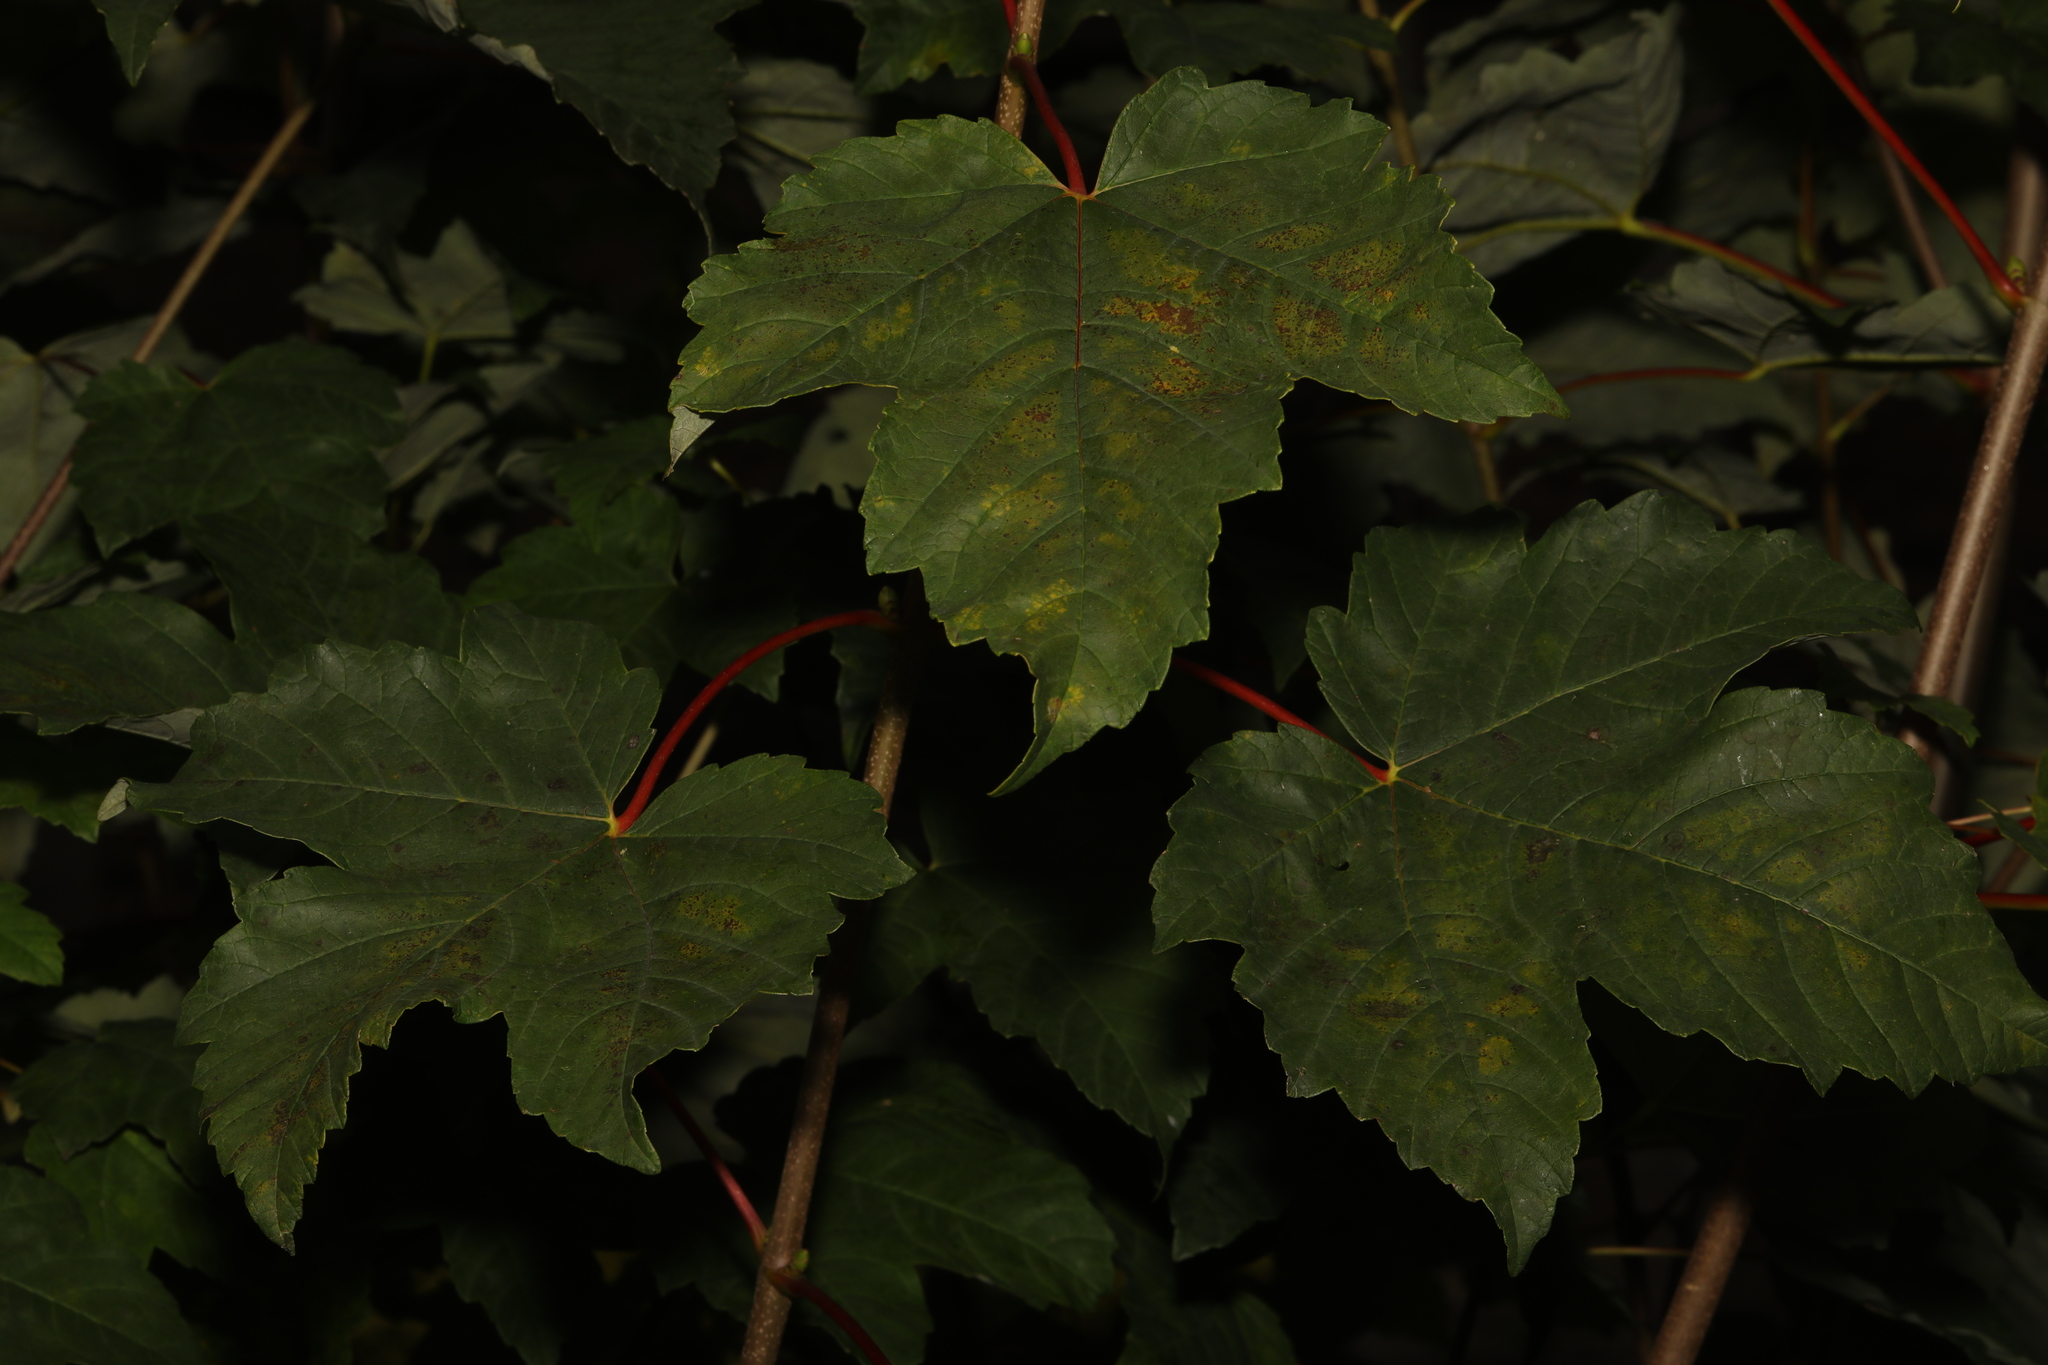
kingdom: Plantae
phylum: Tracheophyta
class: Magnoliopsida
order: Sapindales
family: Sapindaceae
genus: Acer
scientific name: Acer pseudoplatanus
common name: Sycamore
